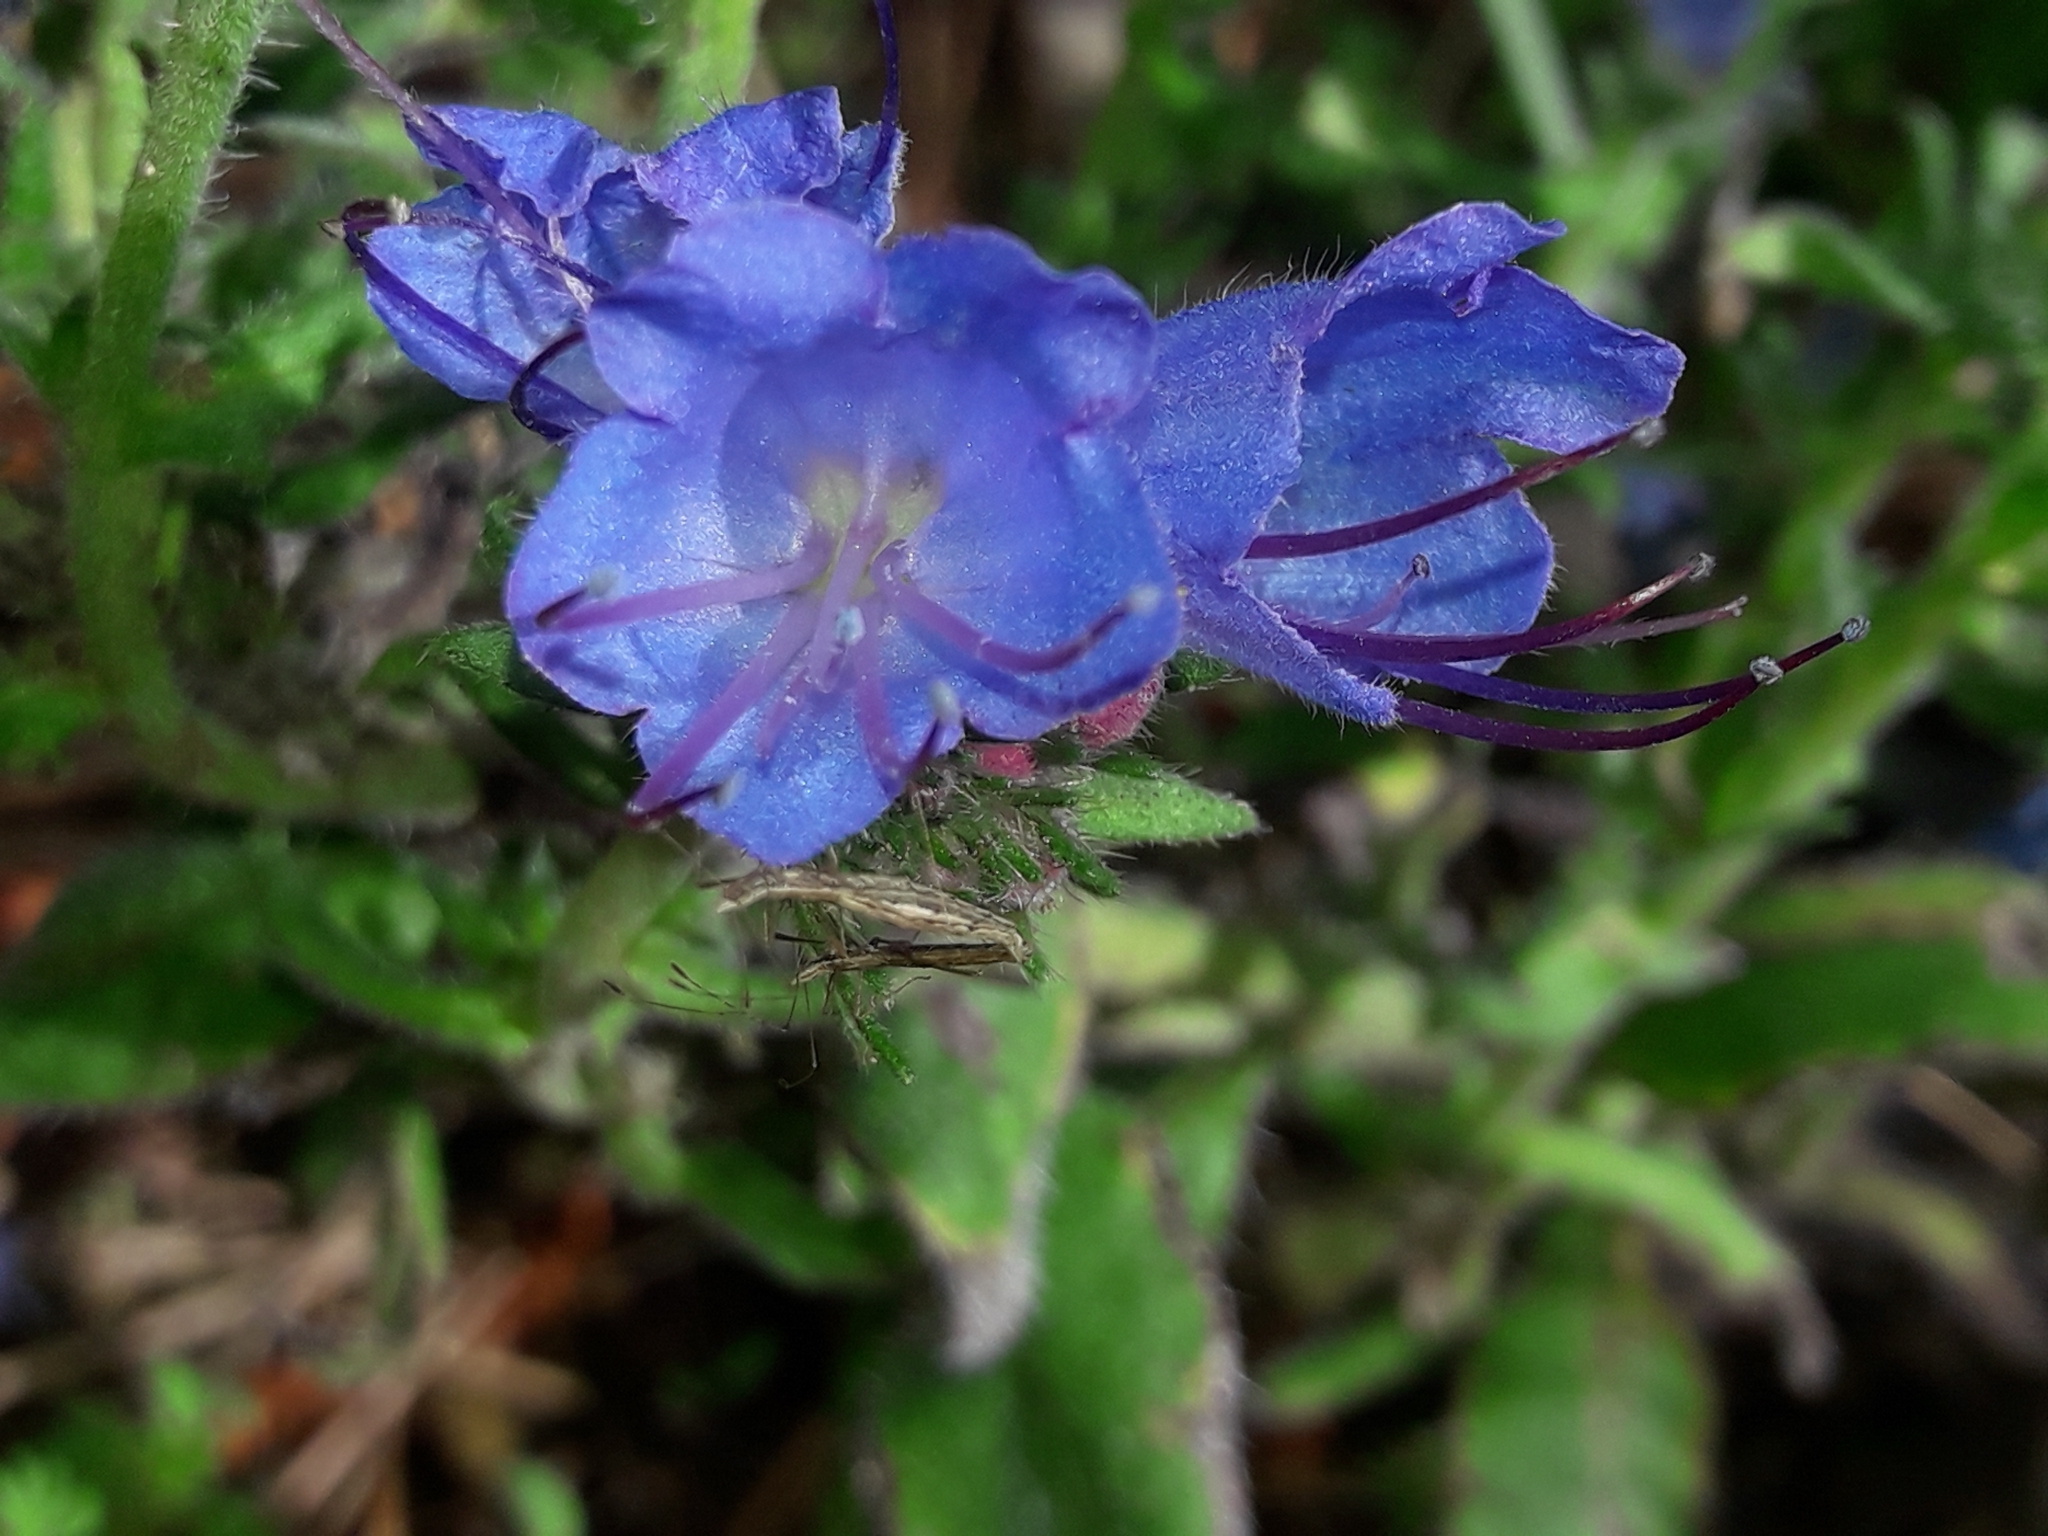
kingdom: Plantae
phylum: Tracheophyta
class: Magnoliopsida
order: Boraginales
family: Boraginaceae
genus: Echium
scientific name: Echium vulgare
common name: Common viper's bugloss
